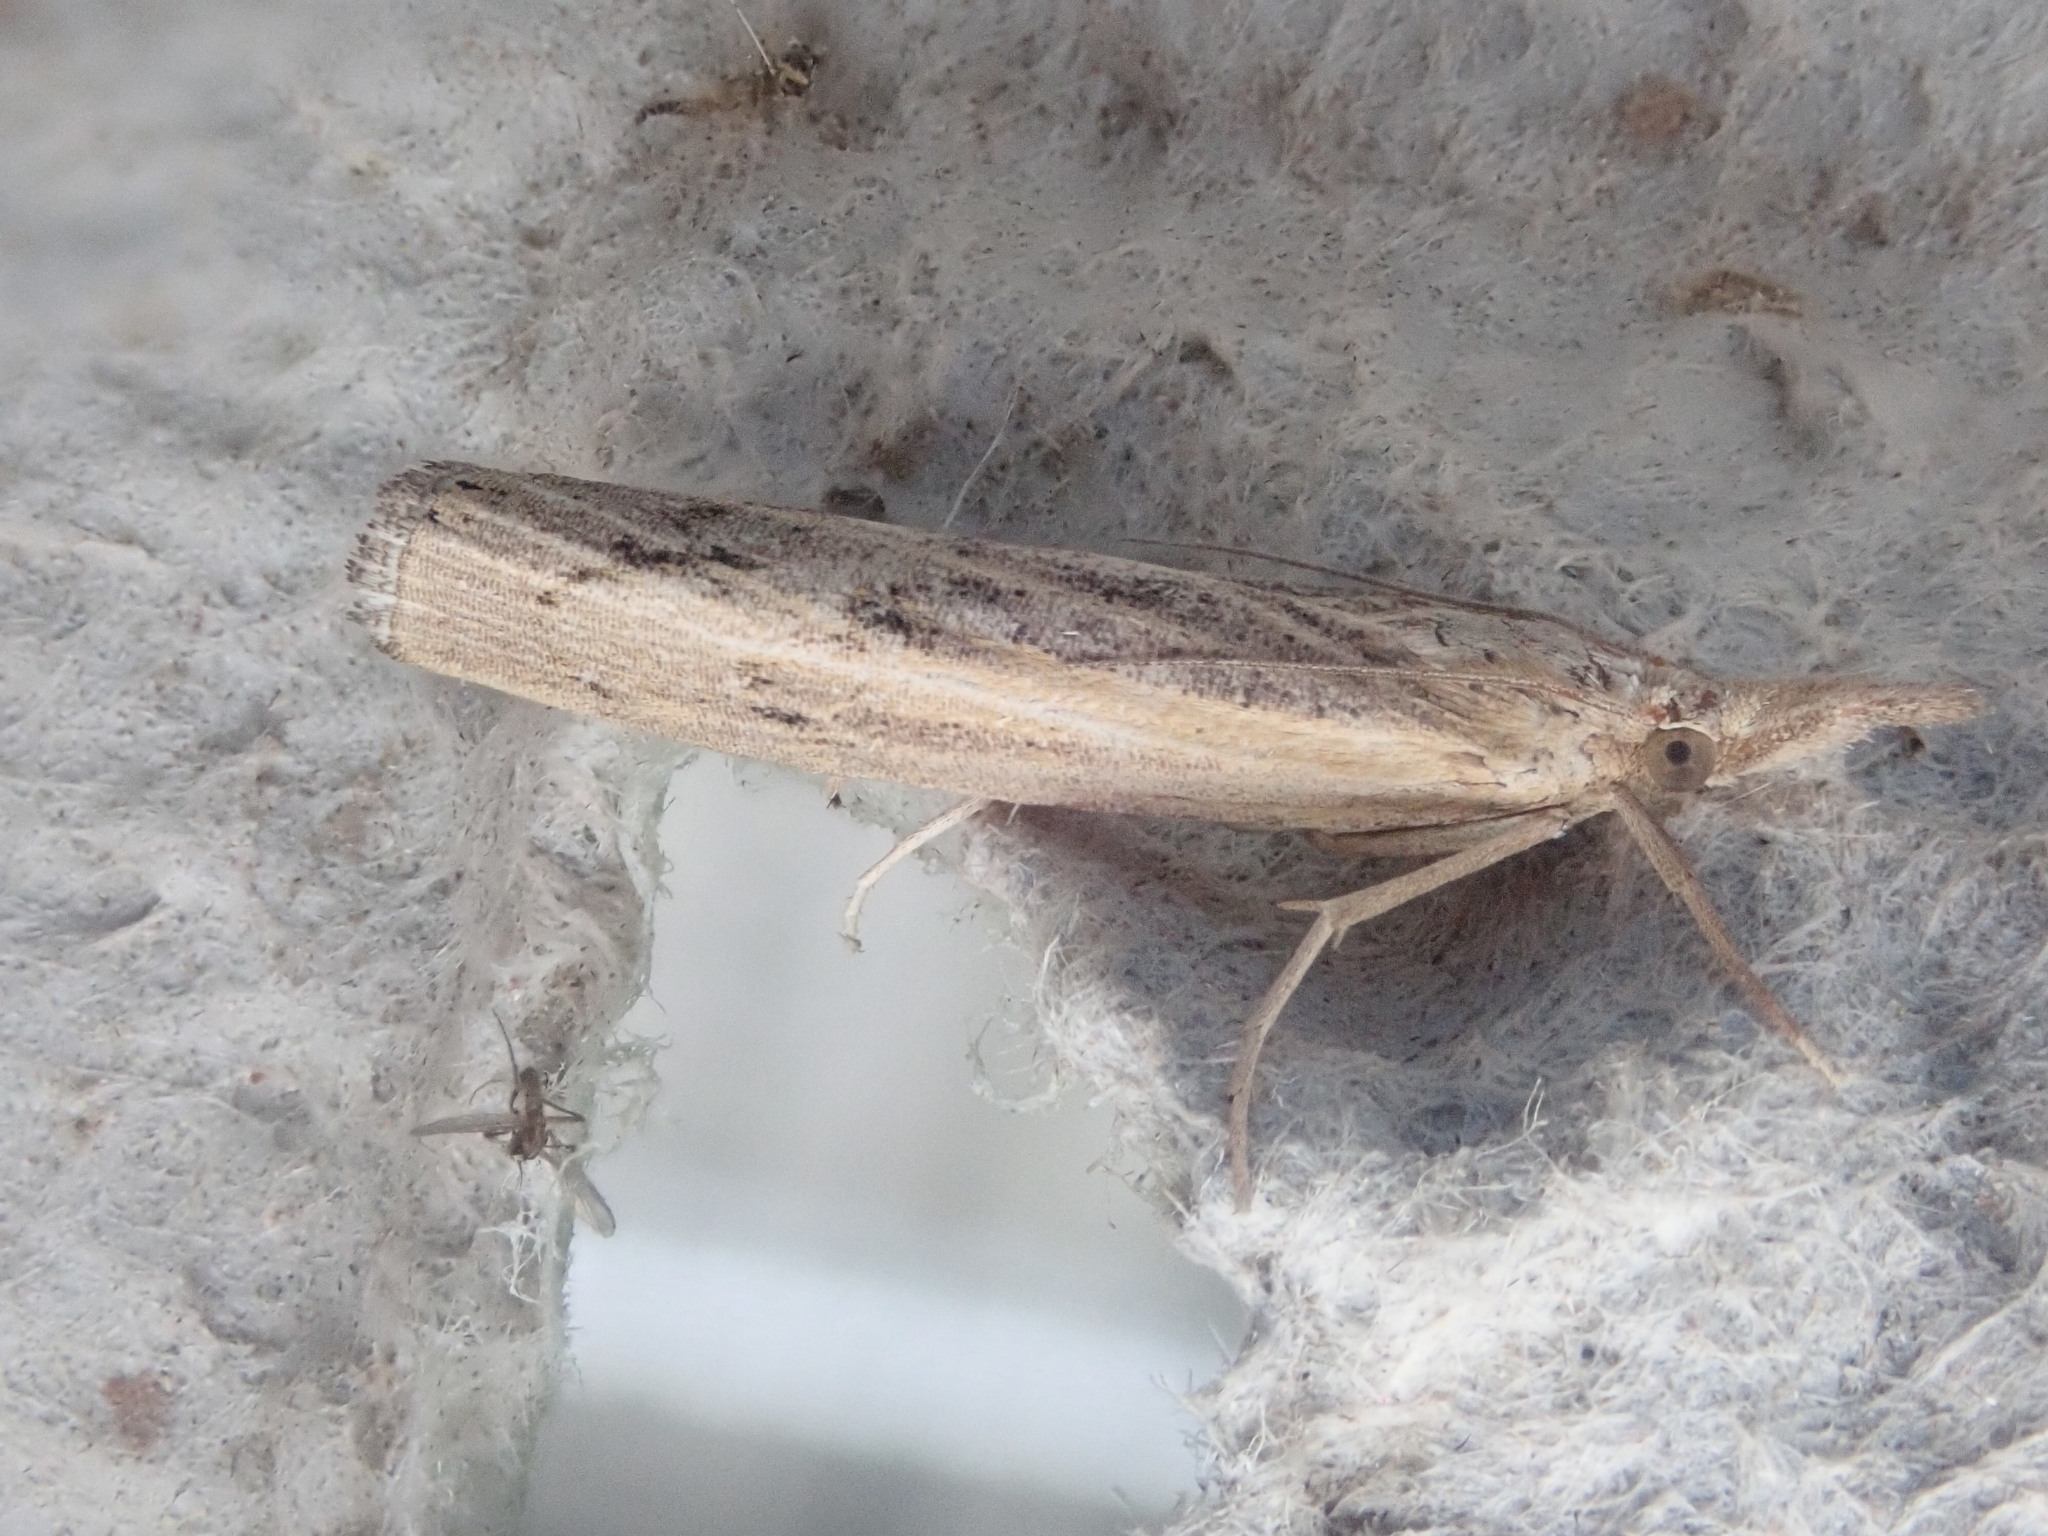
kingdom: Animalia
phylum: Arthropoda
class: Insecta
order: Lepidoptera
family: Crambidae
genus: Pediasia
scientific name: Pediasia trisecta
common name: Sod webworm moth
